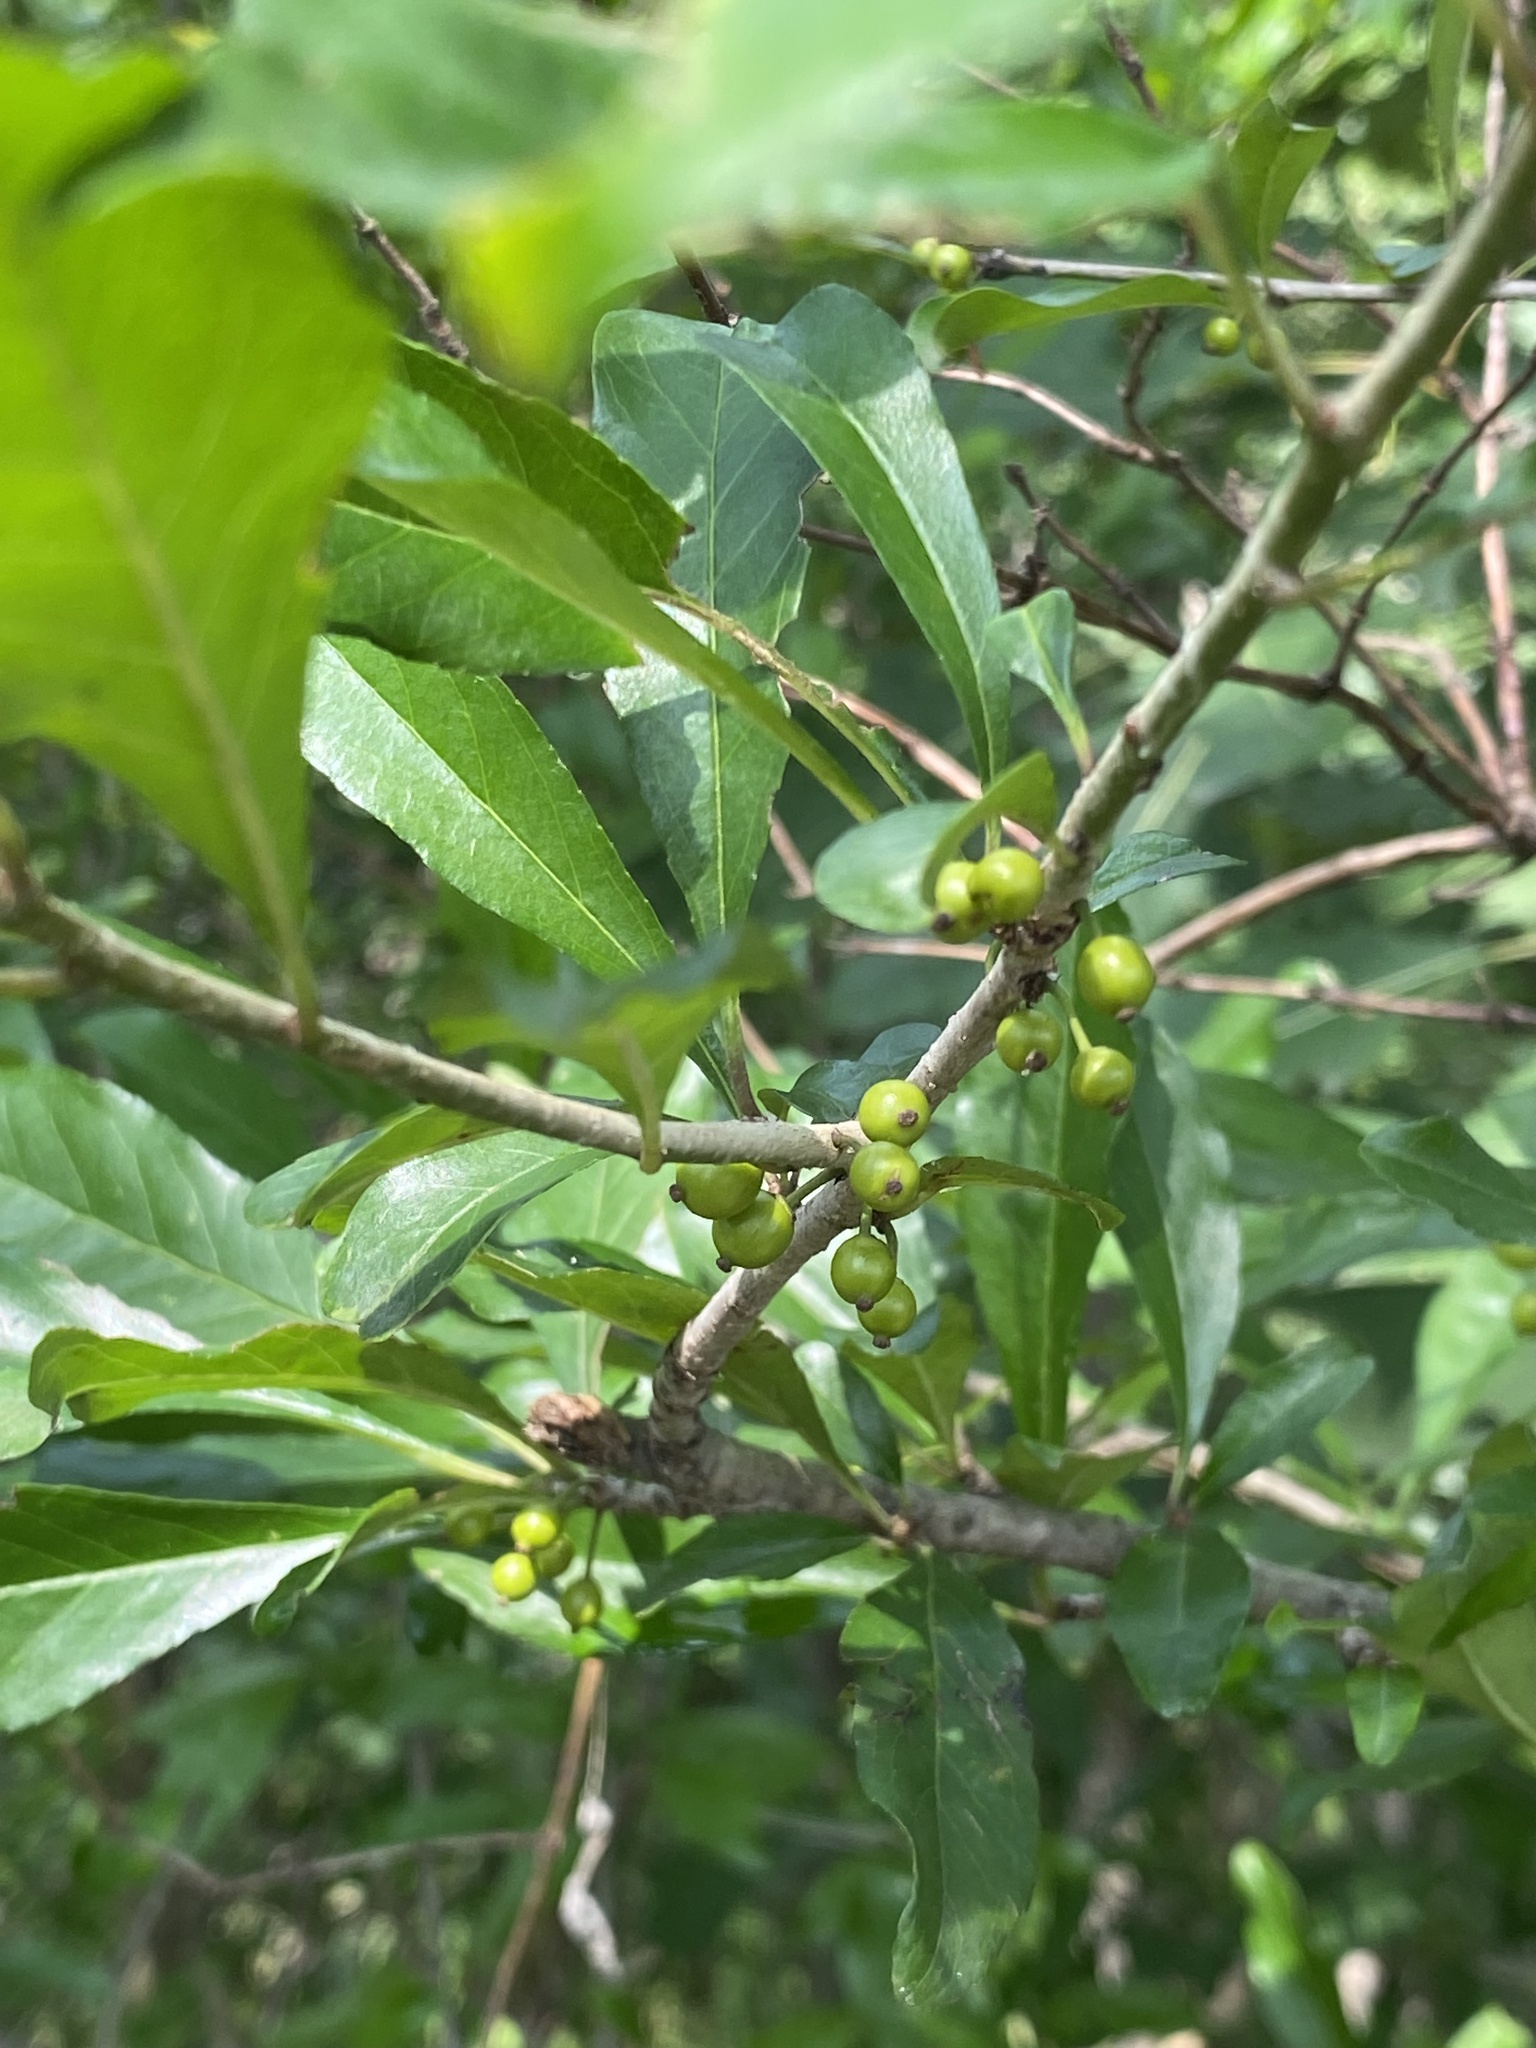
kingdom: Plantae
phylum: Tracheophyta
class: Magnoliopsida
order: Aquifoliales
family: Aquifoliaceae
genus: Ilex
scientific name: Ilex decidua
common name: Possum-haw
